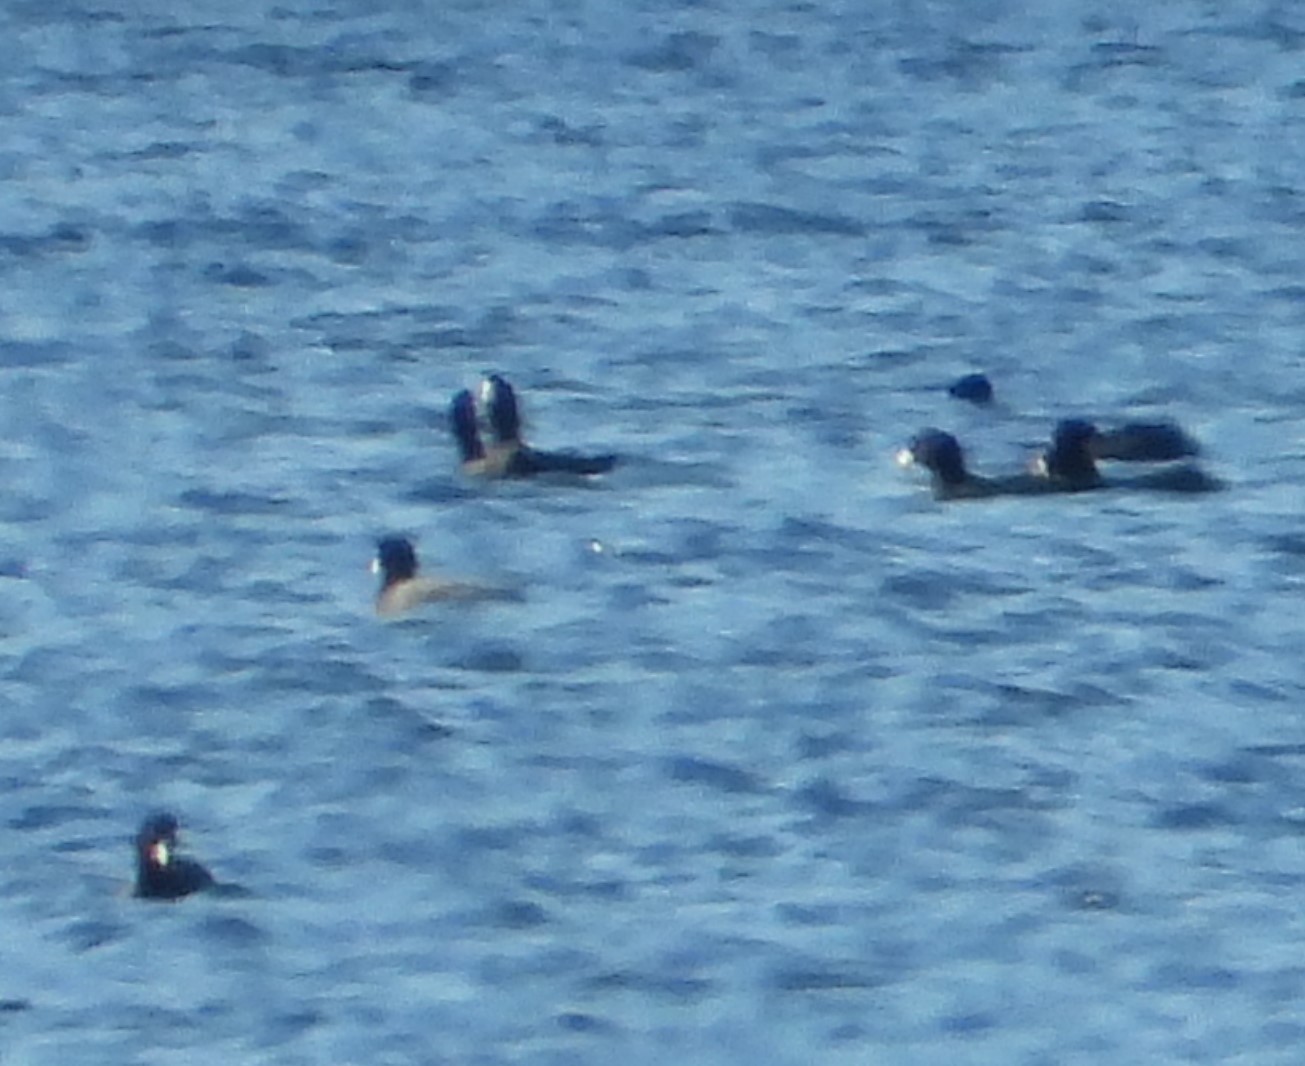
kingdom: Animalia
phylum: Chordata
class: Aves
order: Gruiformes
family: Rallidae
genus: Fulica
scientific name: Fulica americana
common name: American coot
